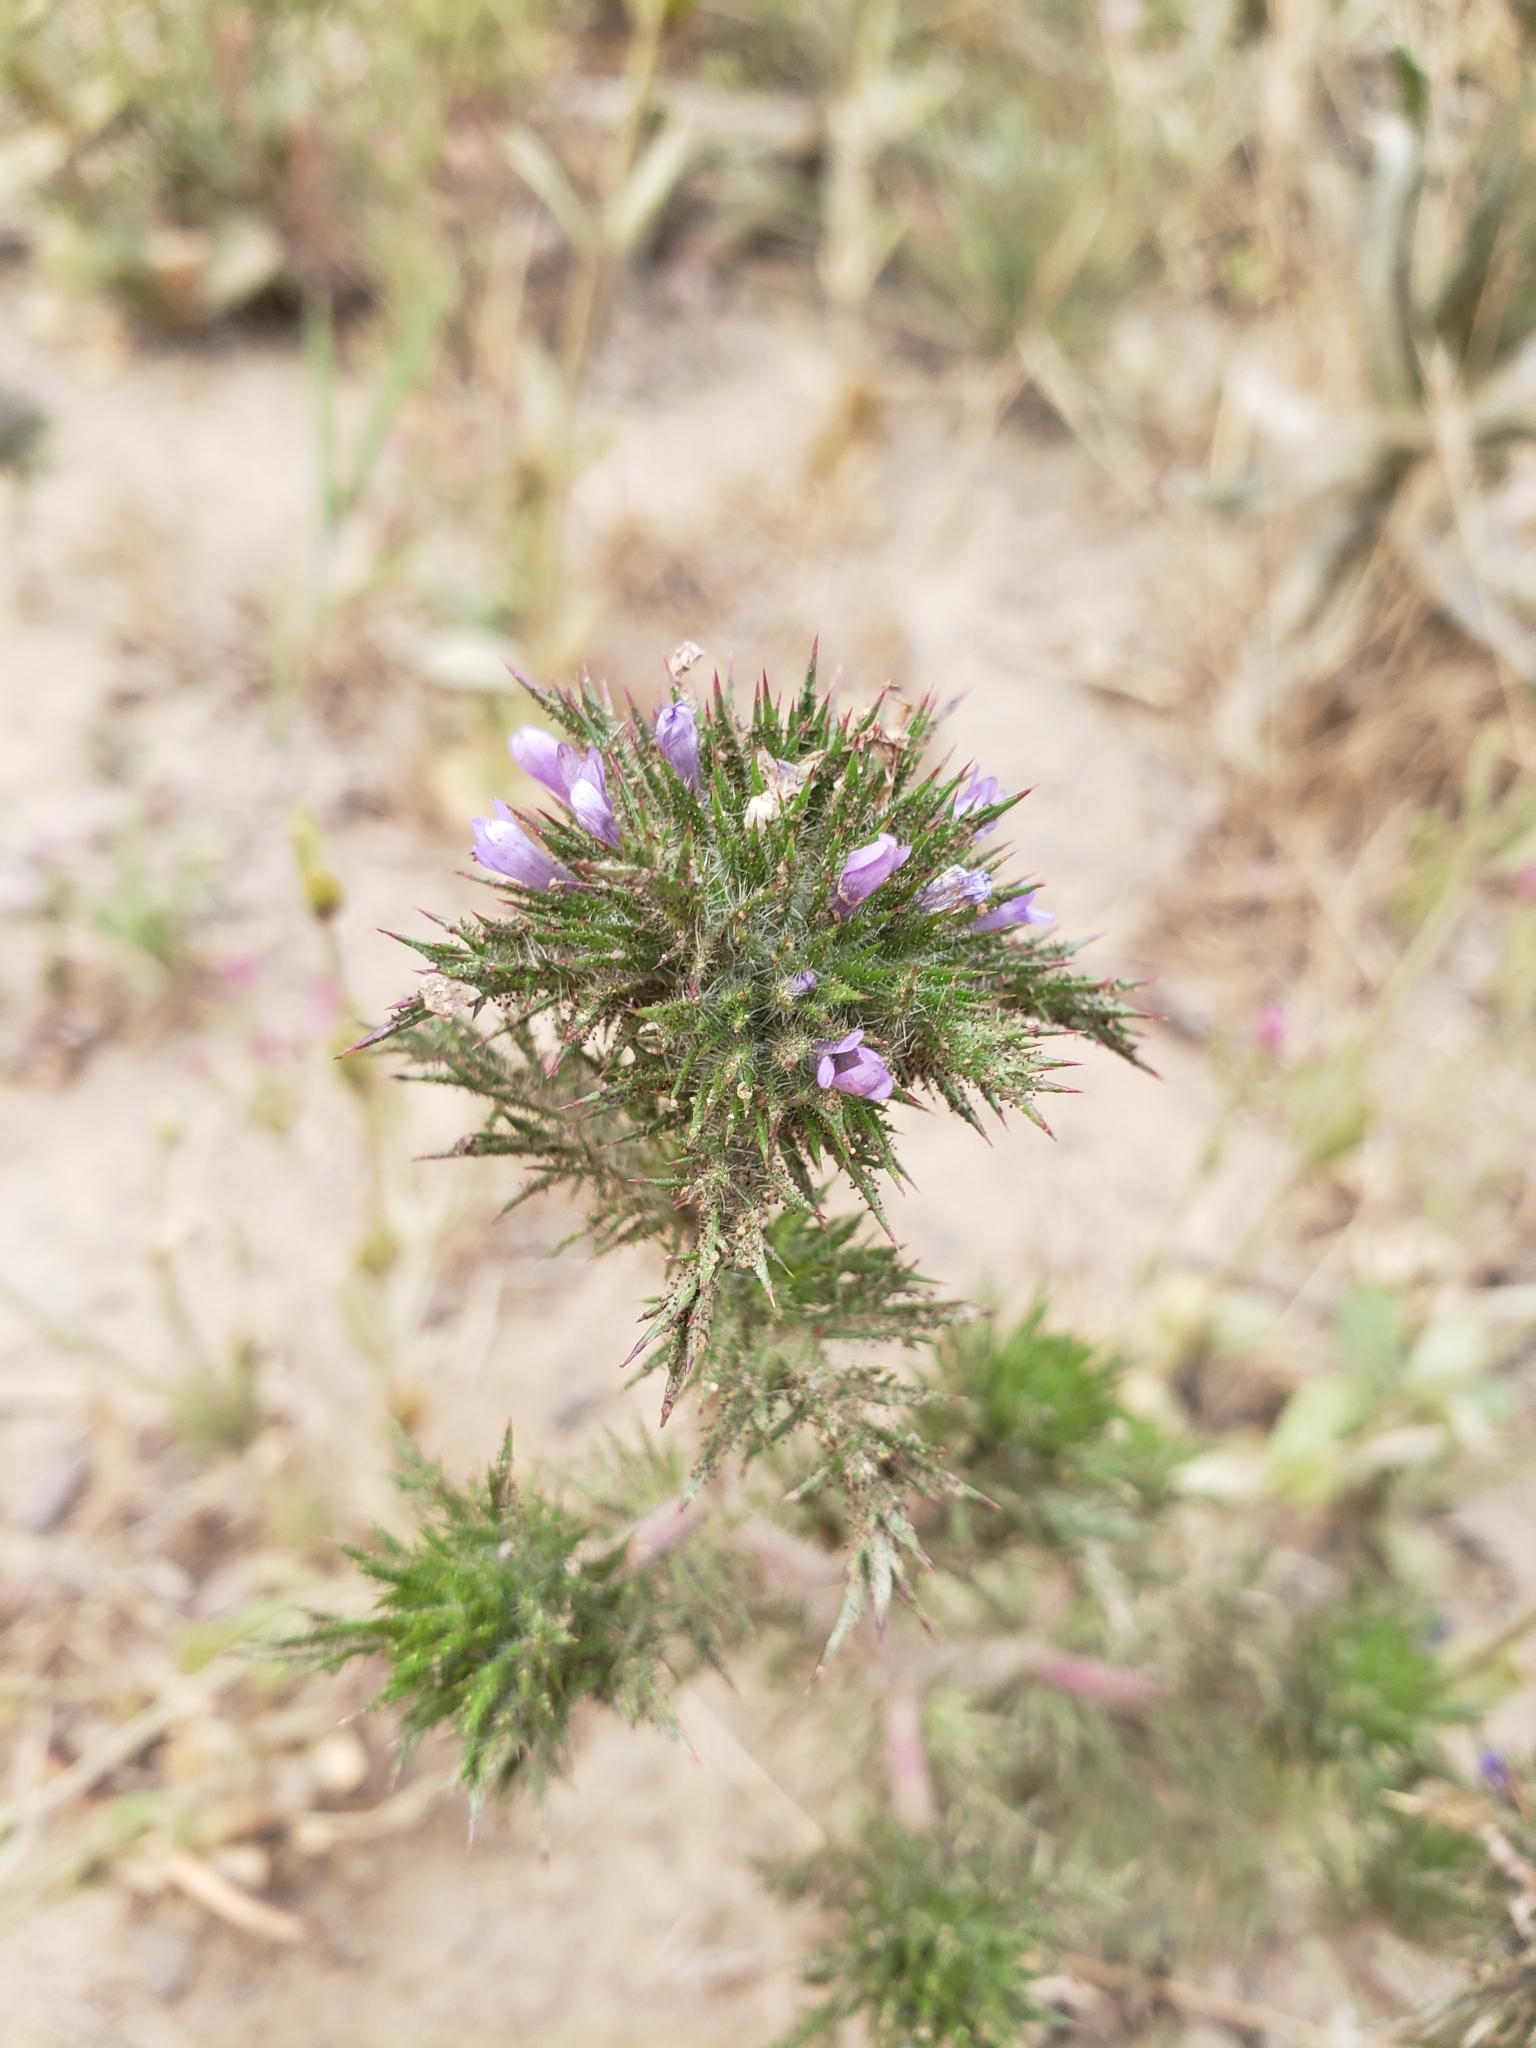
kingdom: Plantae
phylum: Tracheophyta
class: Magnoliopsida
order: Ericales
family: Polemoniaceae
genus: Navarretia
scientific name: Navarretia squarrosa
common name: Skunkweed
